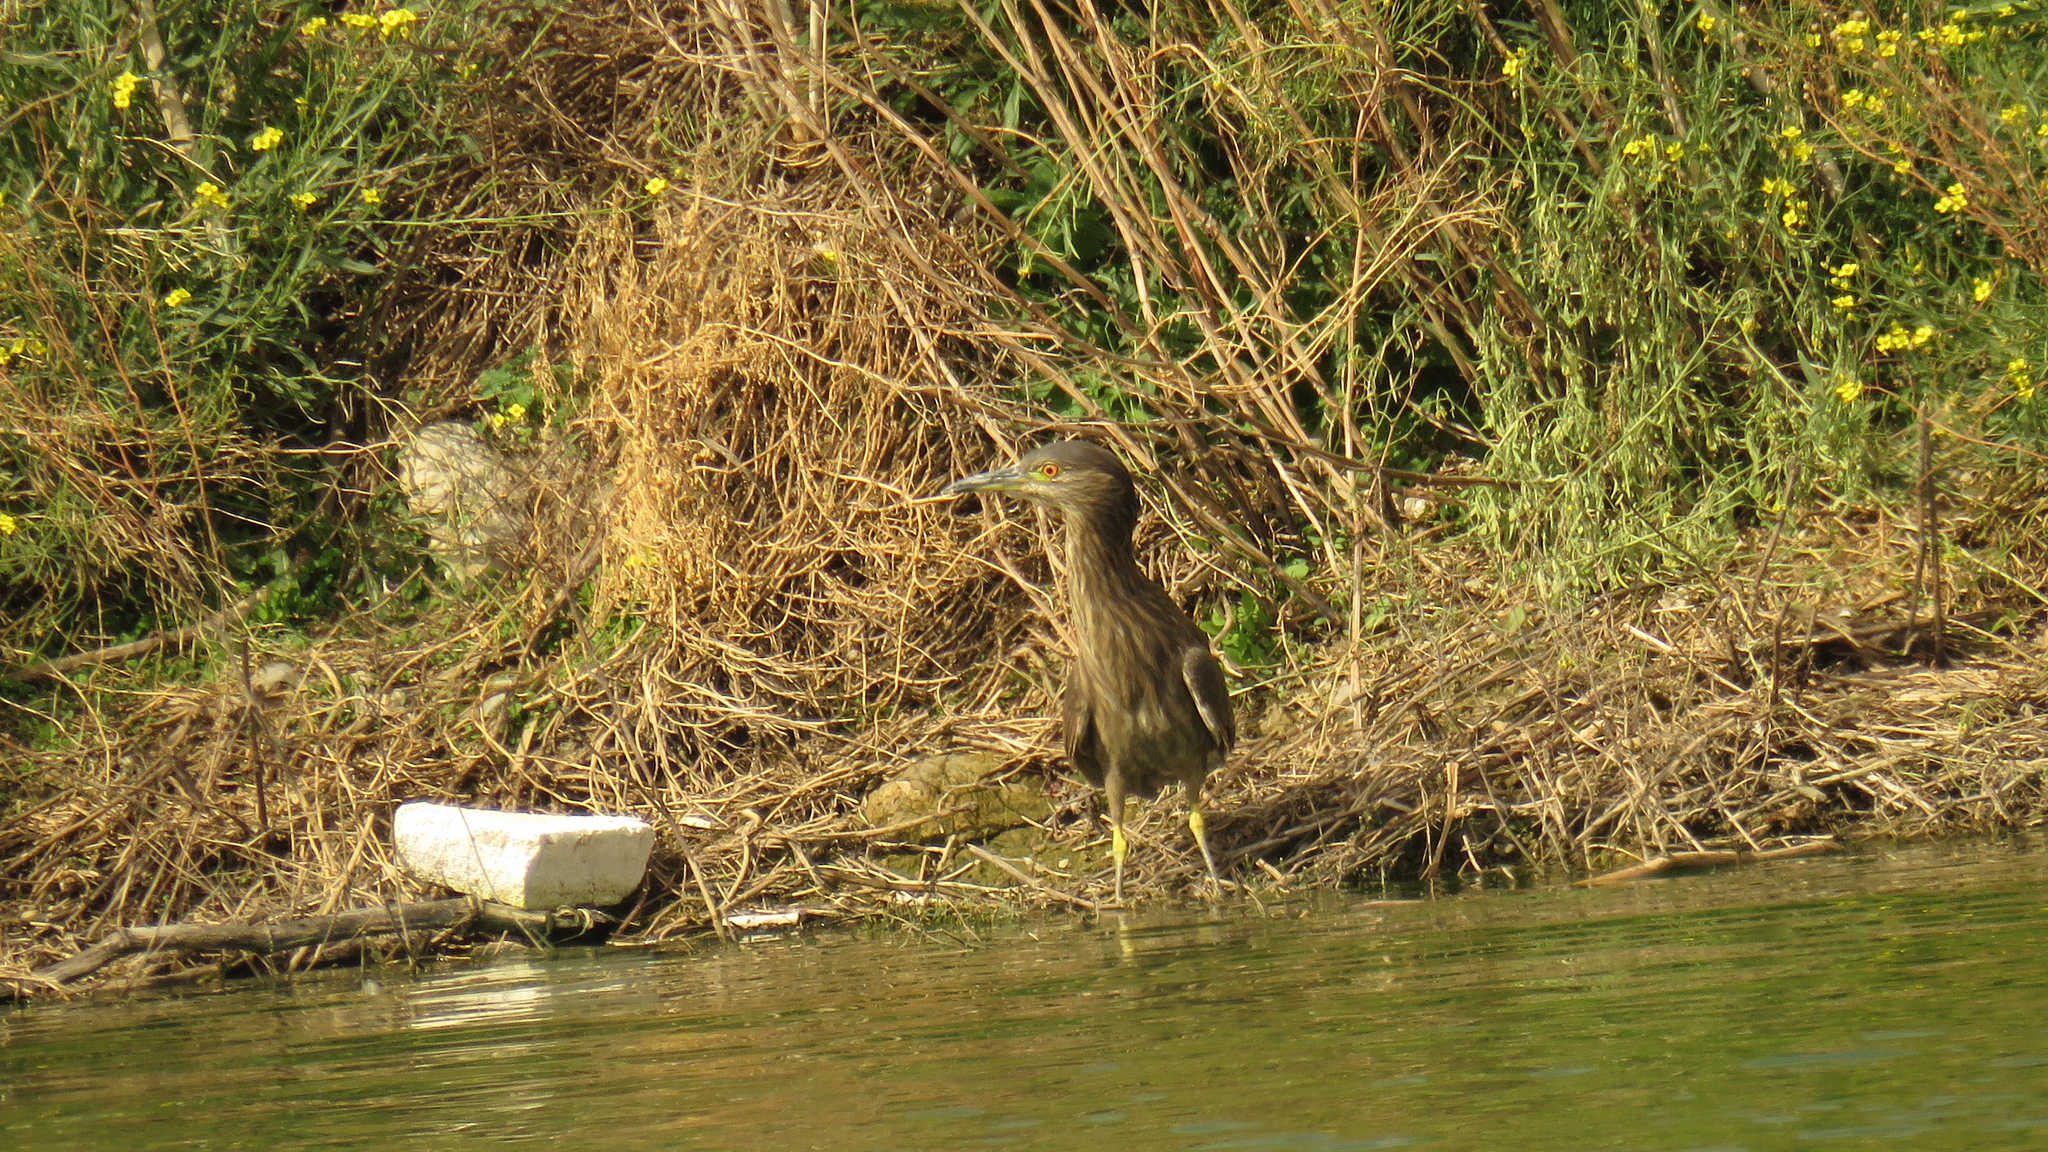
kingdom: Animalia
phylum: Chordata
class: Aves
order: Pelecaniformes
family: Ardeidae
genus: Nycticorax
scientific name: Nycticorax nycticorax
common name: Black-crowned night heron
